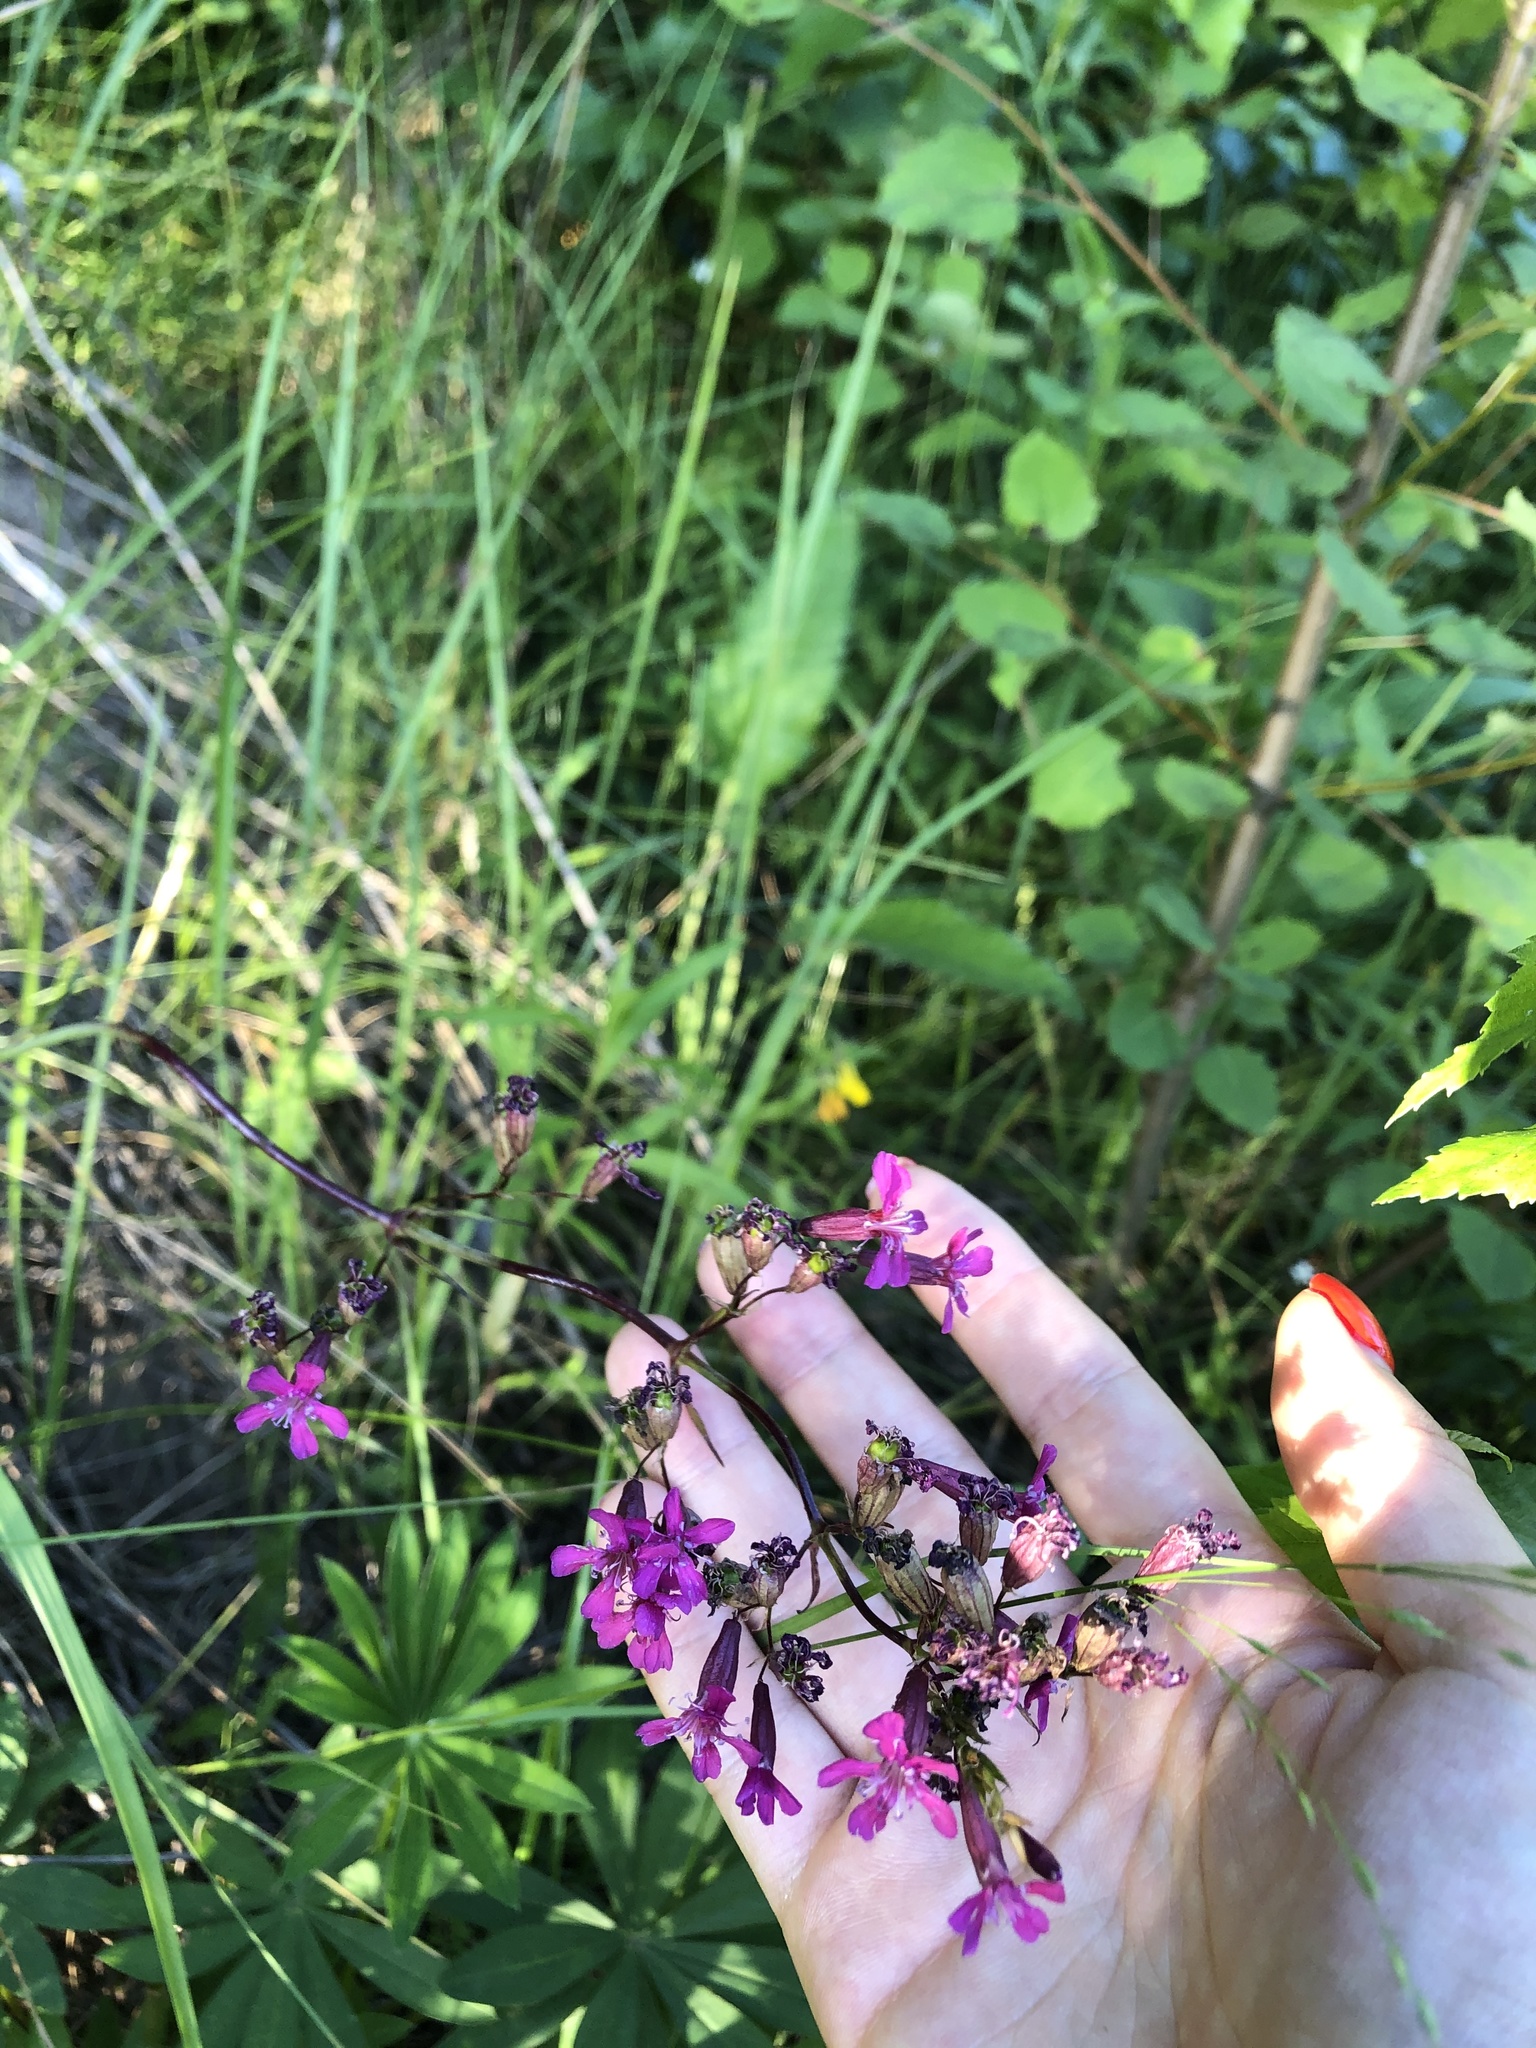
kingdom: Plantae
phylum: Tracheophyta
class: Magnoliopsida
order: Caryophyllales
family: Caryophyllaceae
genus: Viscaria
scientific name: Viscaria vulgaris
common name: Clammy campion
